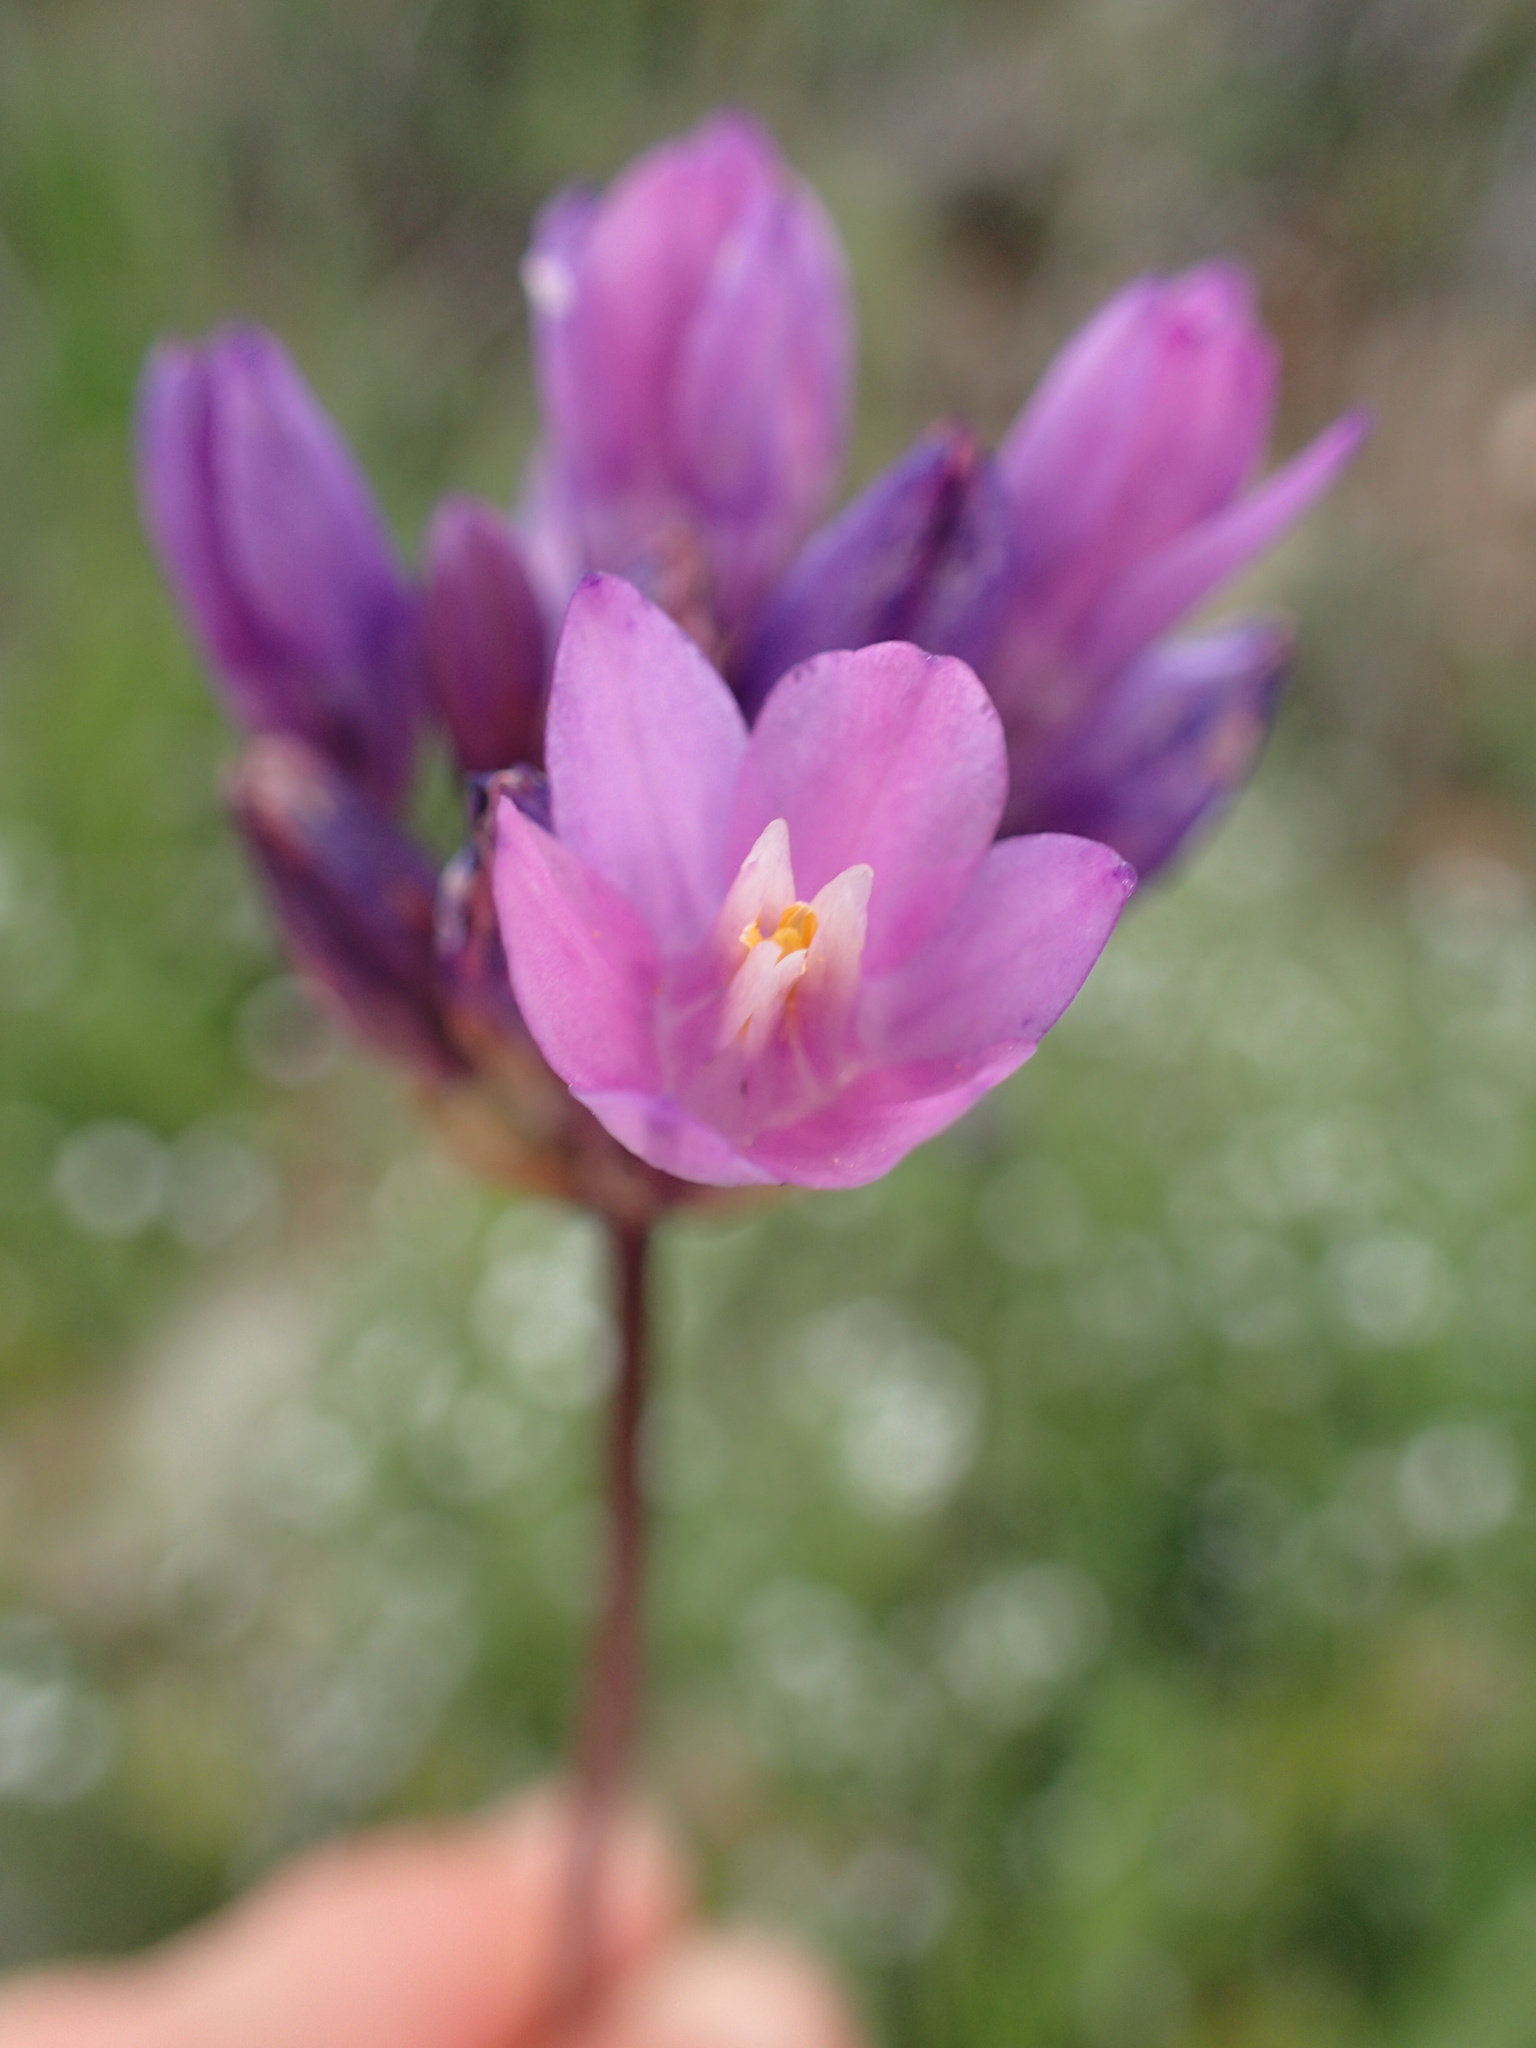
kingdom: Plantae
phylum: Tracheophyta
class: Liliopsida
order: Asparagales
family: Asparagaceae
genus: Dipterostemon
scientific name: Dipterostemon capitatus
